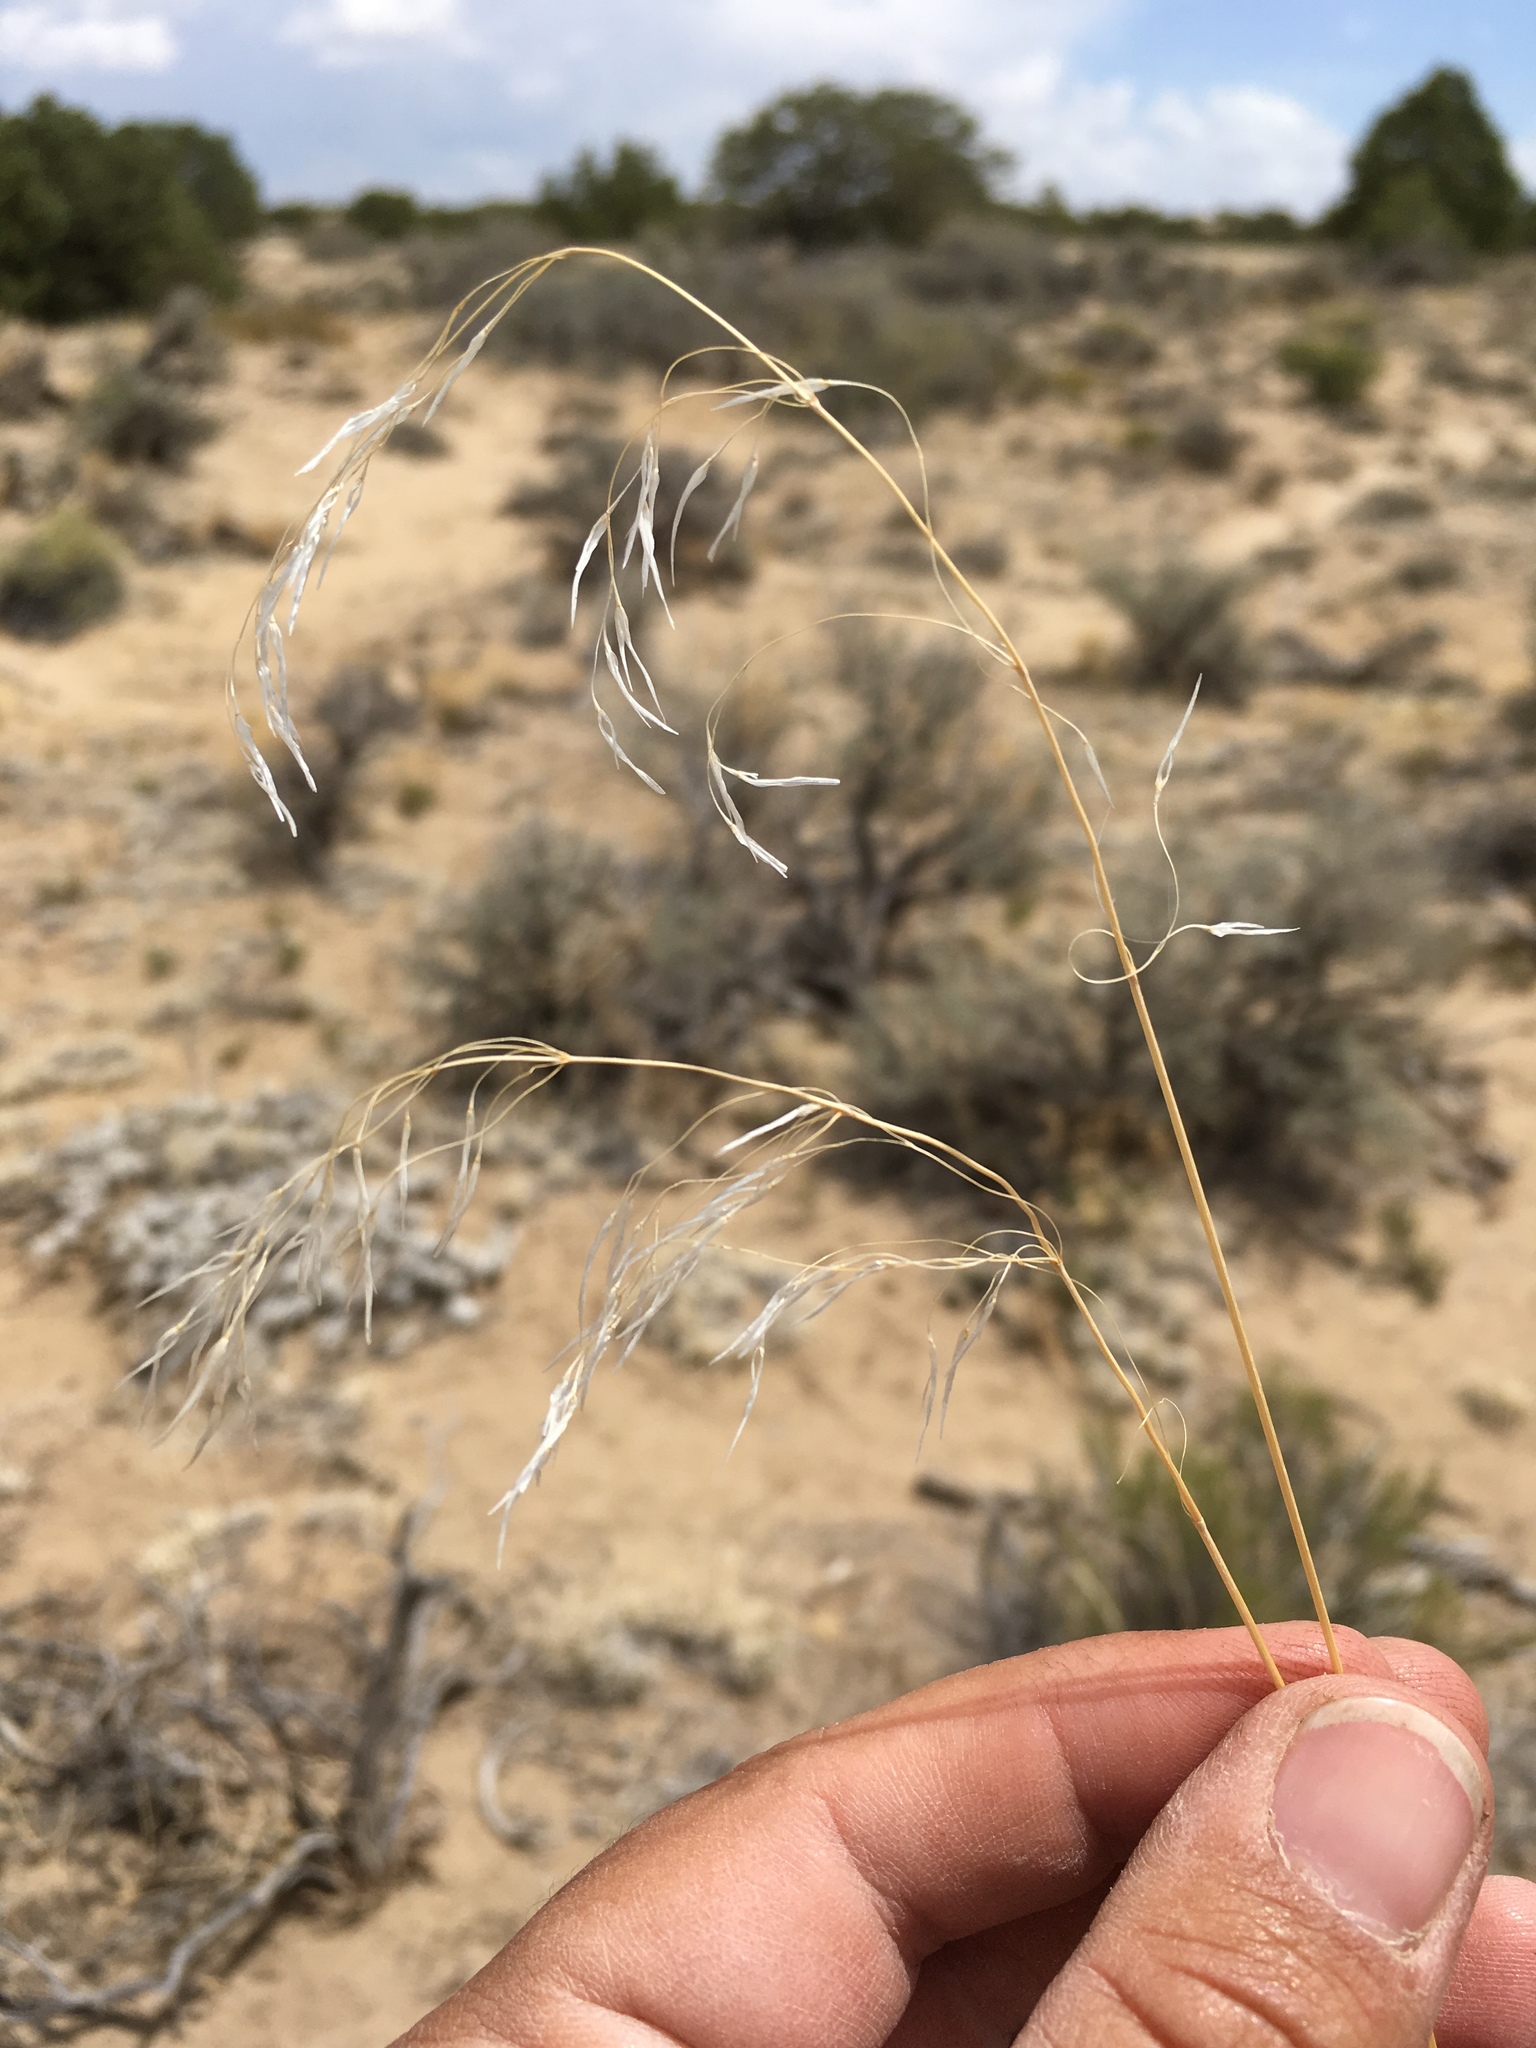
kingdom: Plantae
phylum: Tracheophyta
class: Liliopsida
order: Poales
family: Poaceae
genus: Bromus
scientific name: Bromus tectorum
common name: Cheatgrass
